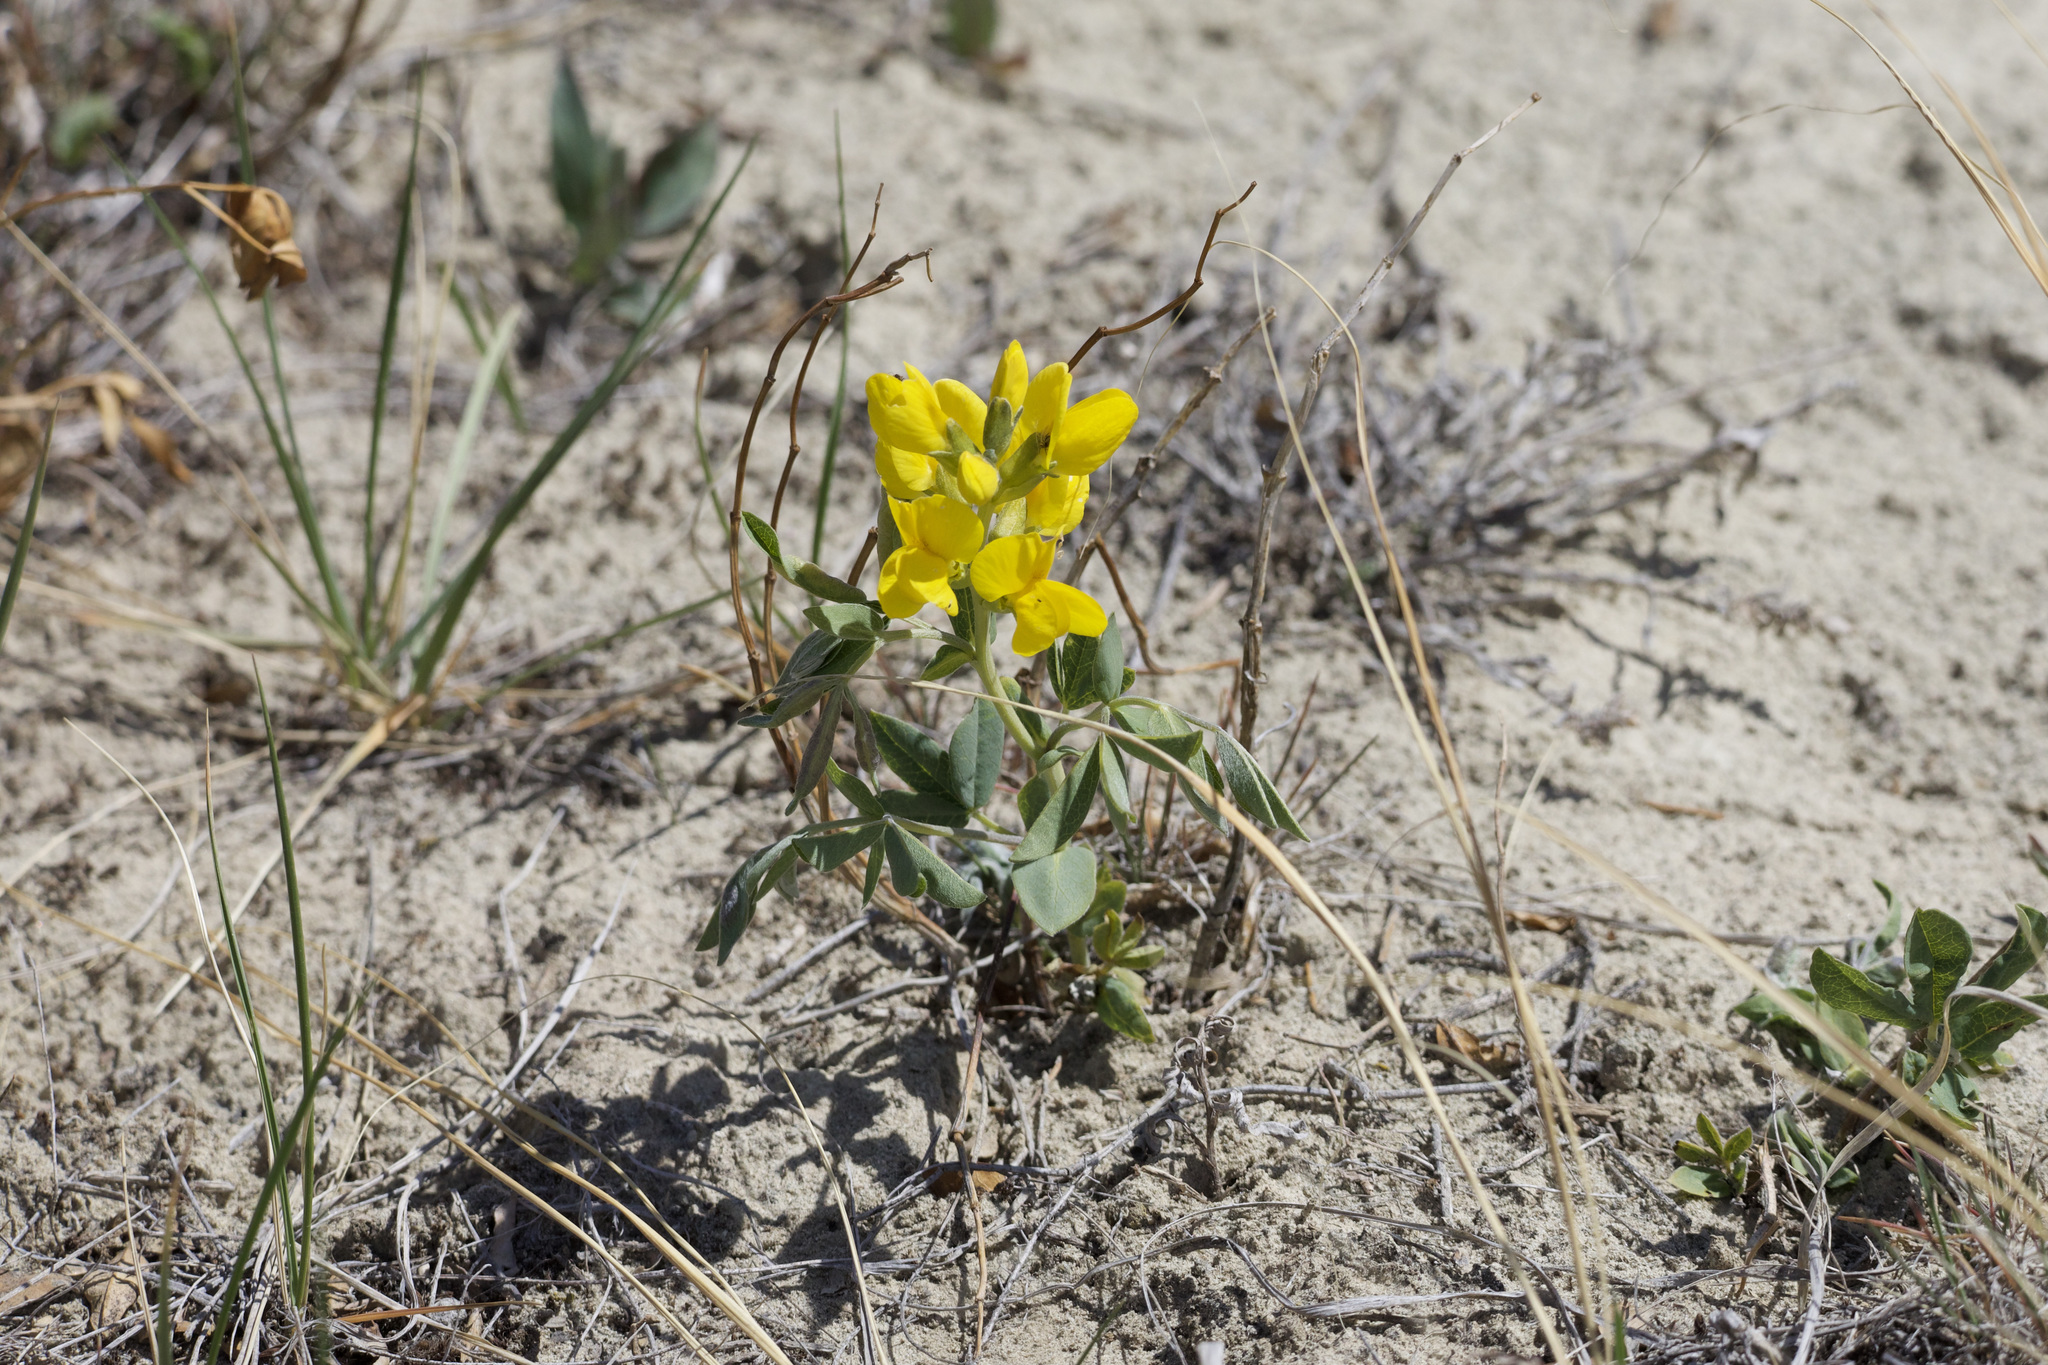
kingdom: Plantae
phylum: Tracheophyta
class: Magnoliopsida
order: Fabales
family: Fabaceae
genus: Thermopsis
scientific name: Thermopsis rhombifolia
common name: Circle-pod-pea
